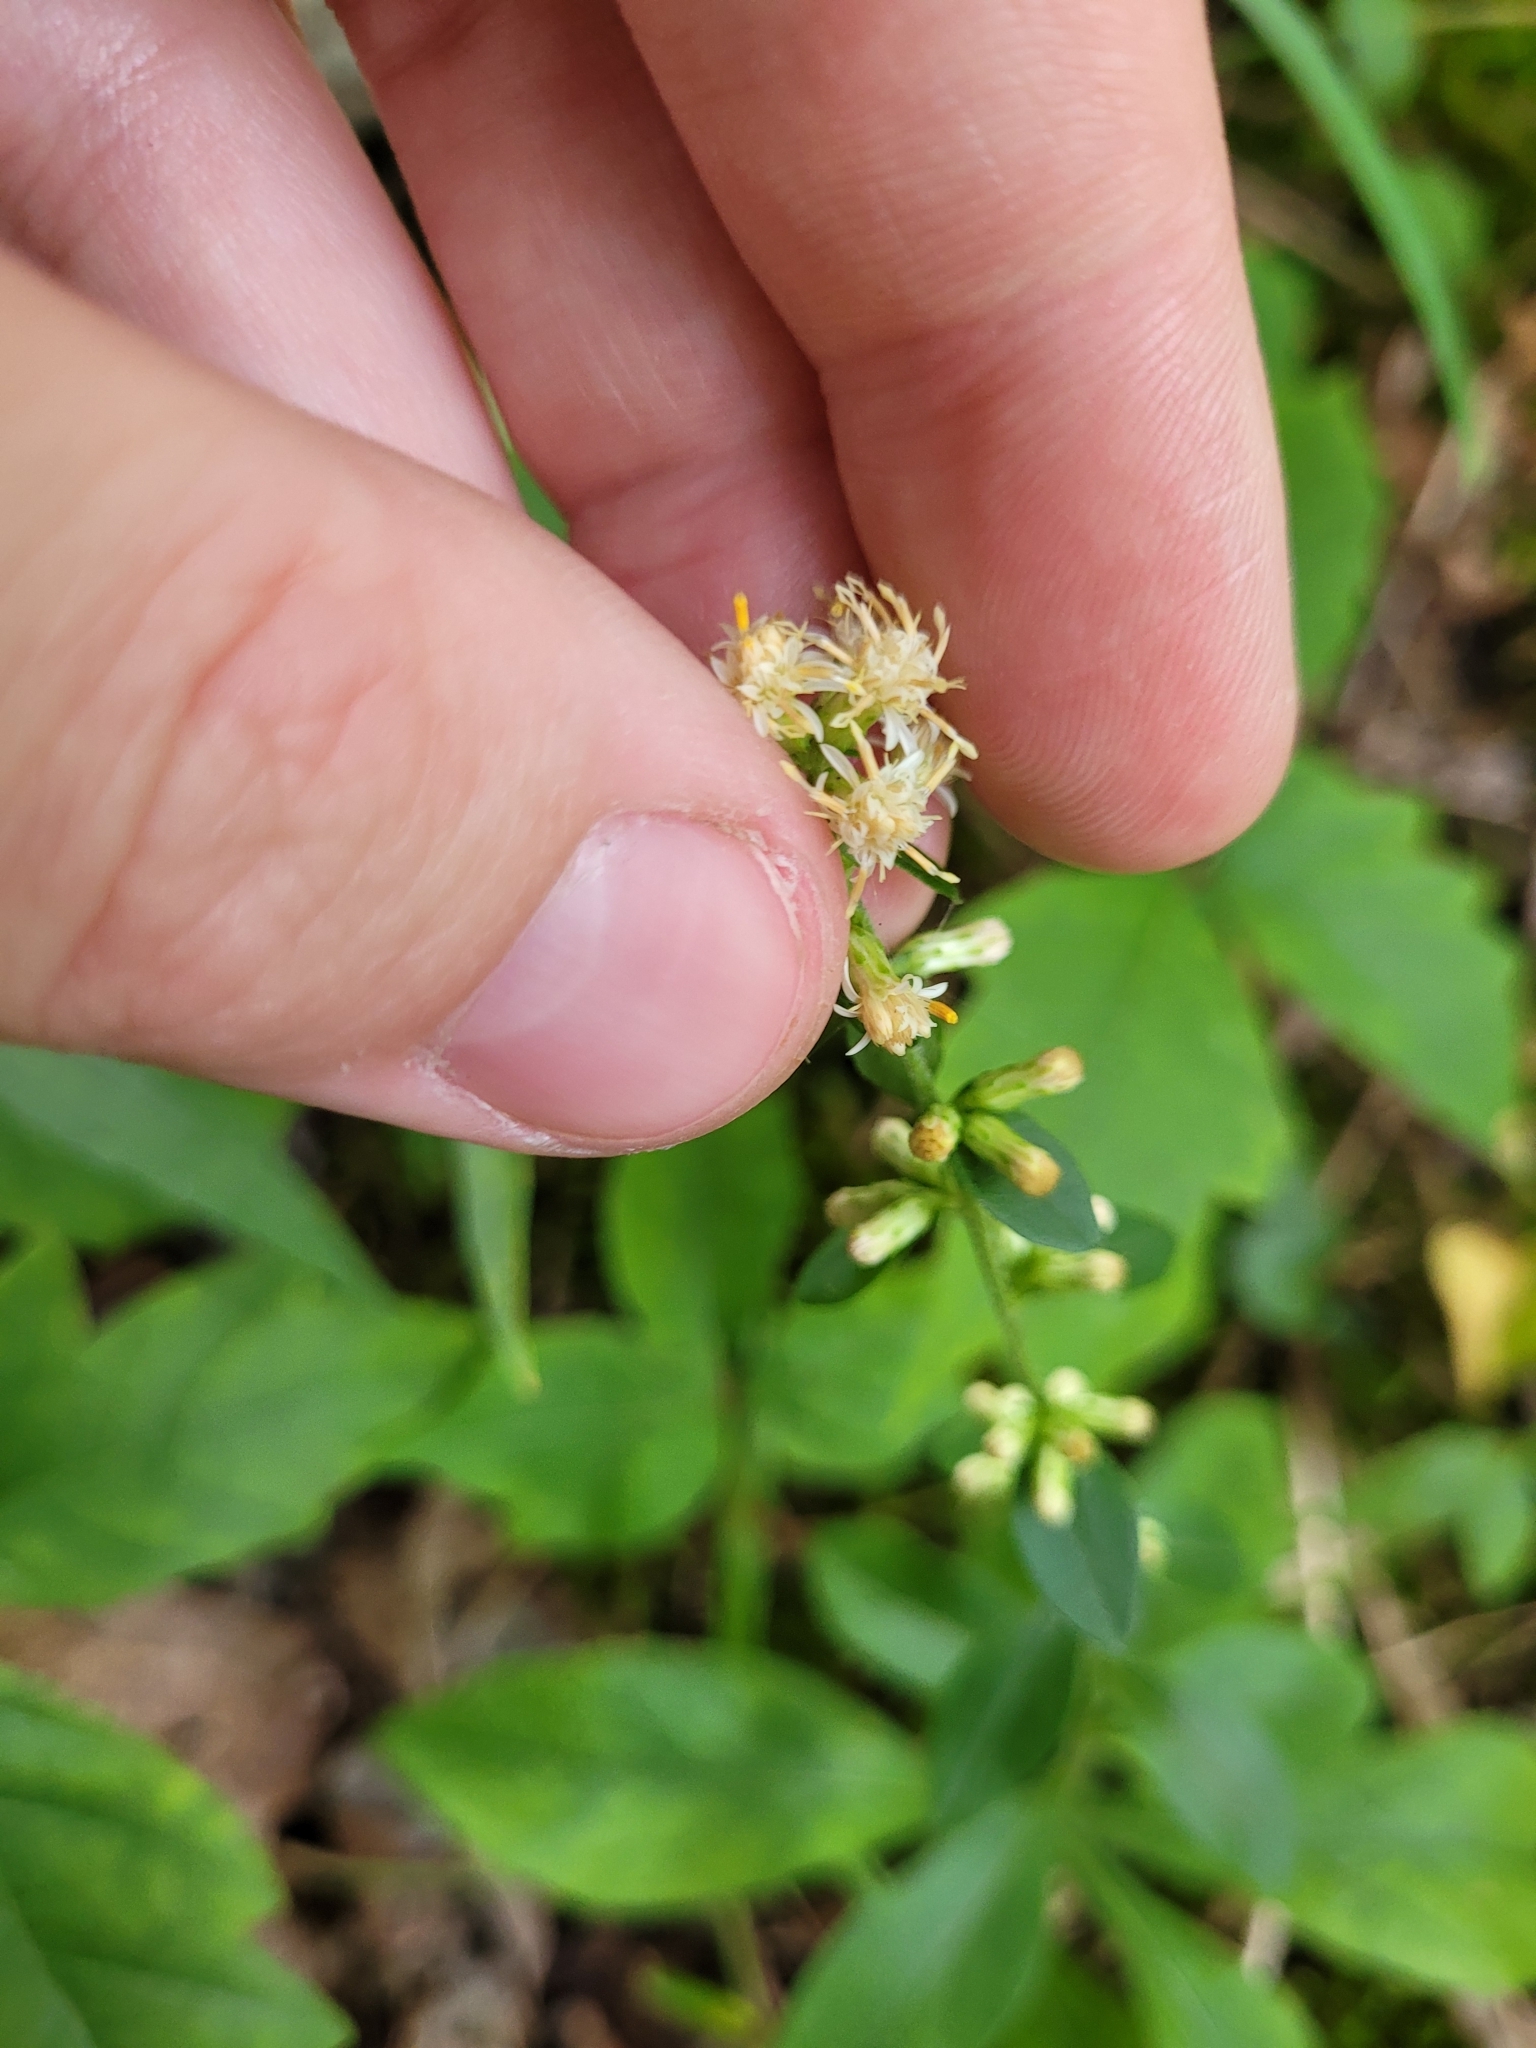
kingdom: Plantae
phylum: Tracheophyta
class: Magnoliopsida
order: Asterales
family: Asteraceae
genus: Solidago
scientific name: Solidago bicolor
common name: Silverrod
